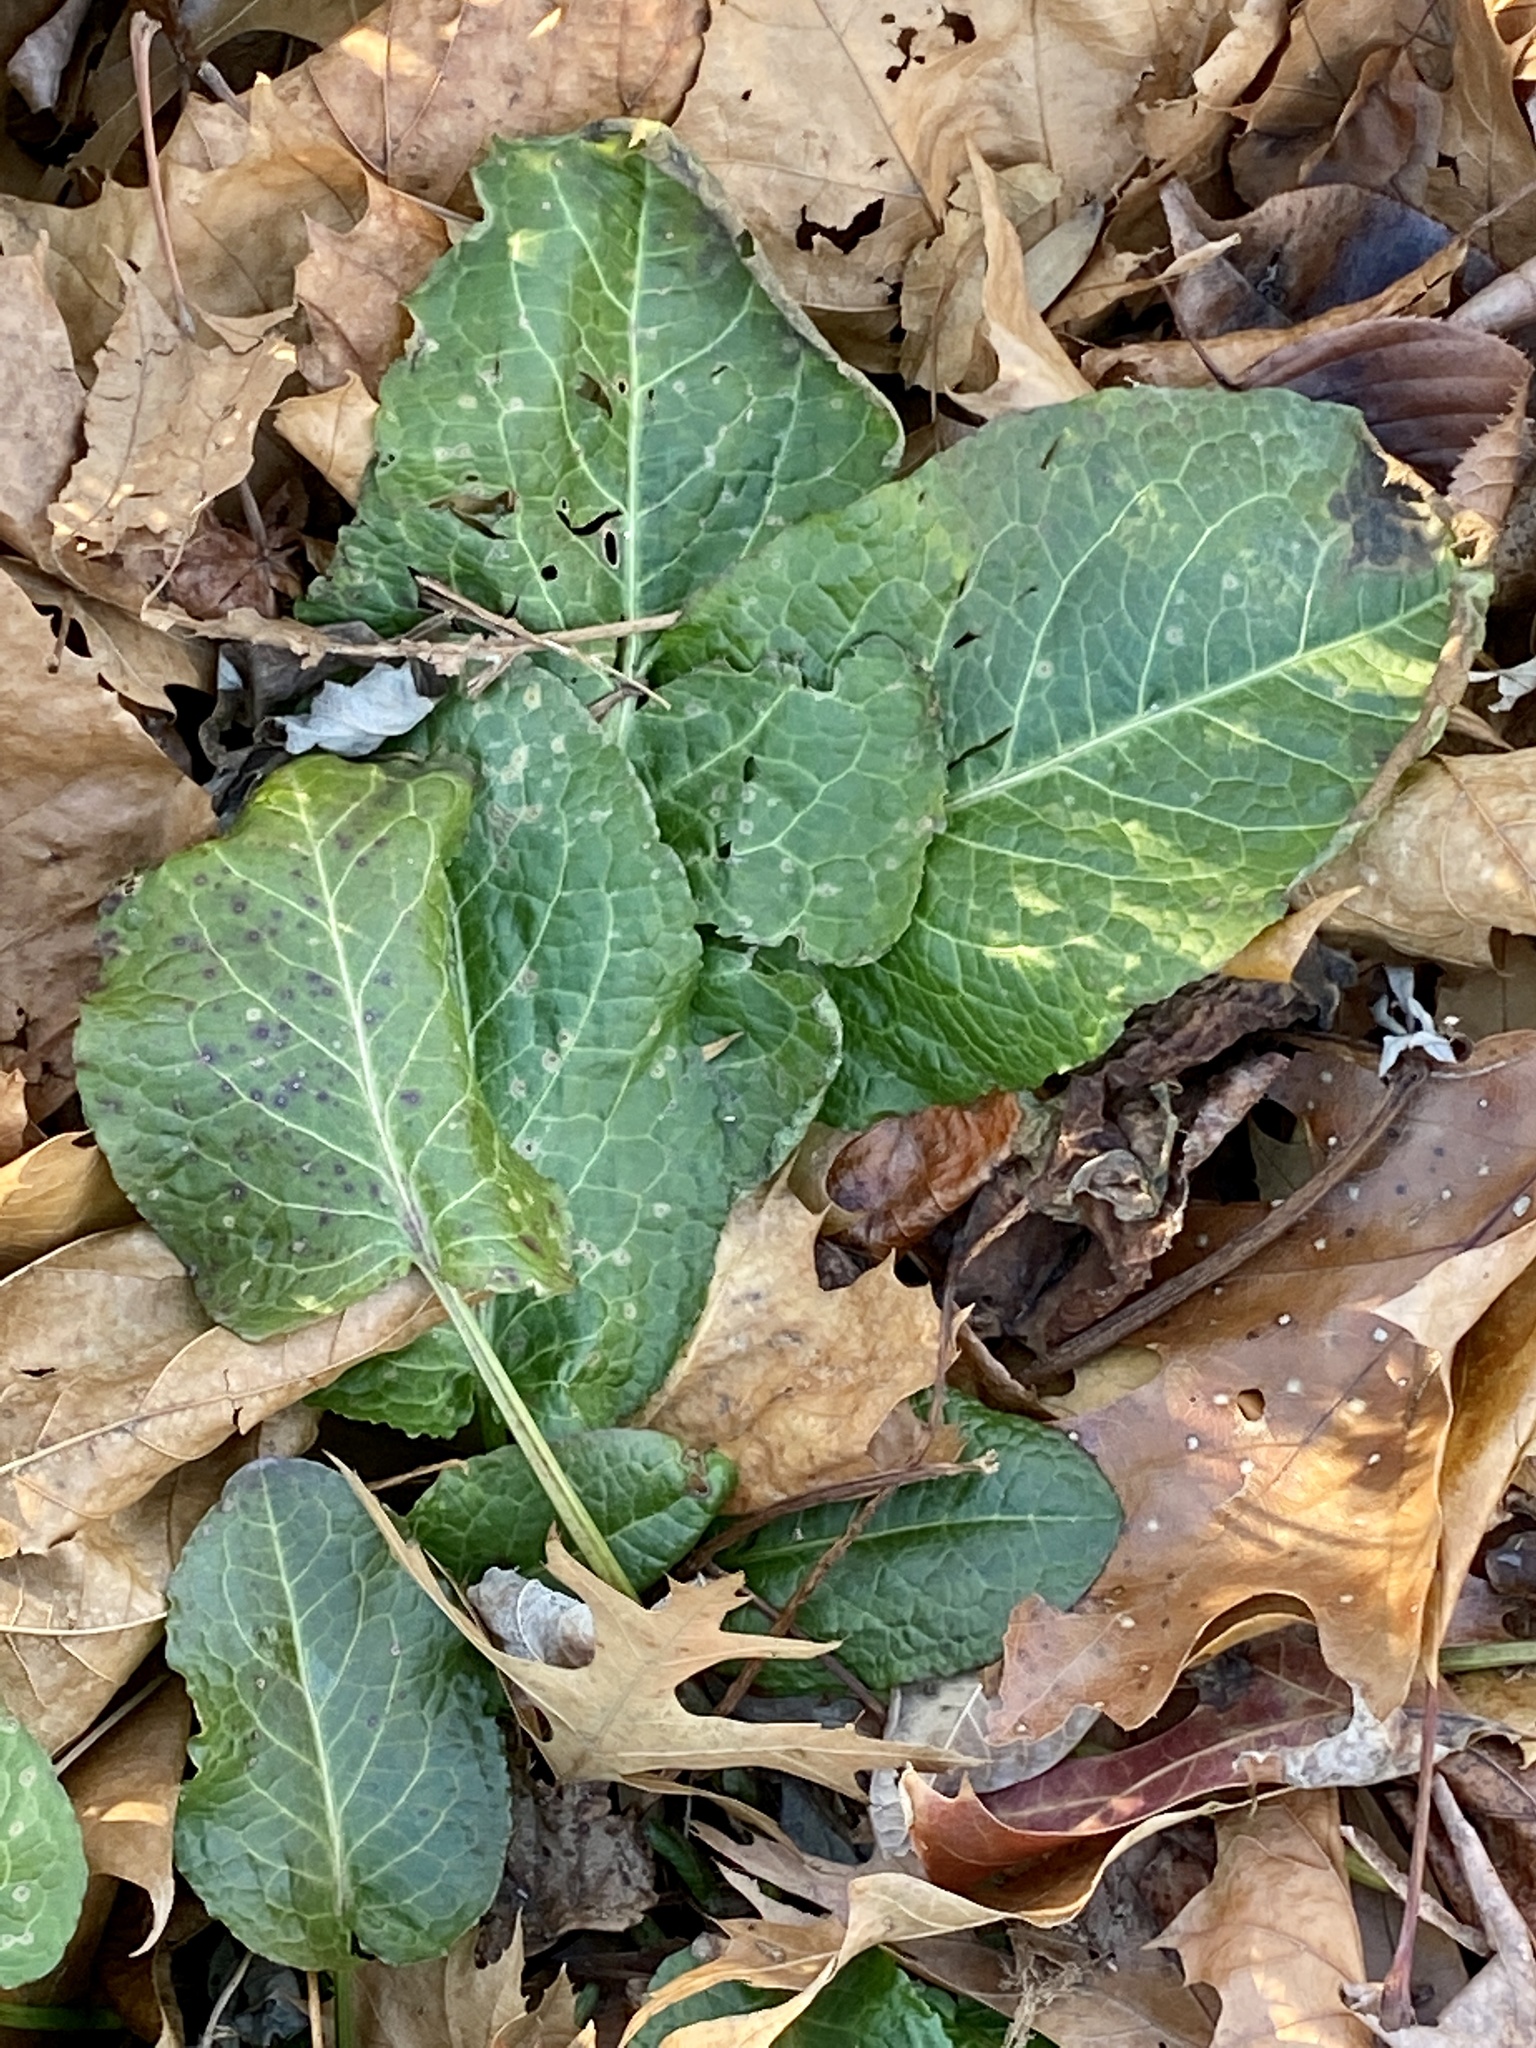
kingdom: Plantae
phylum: Tracheophyta
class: Magnoliopsida
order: Caryophyllales
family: Polygonaceae
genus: Rumex
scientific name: Rumex obtusifolius
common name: Bitter dock
